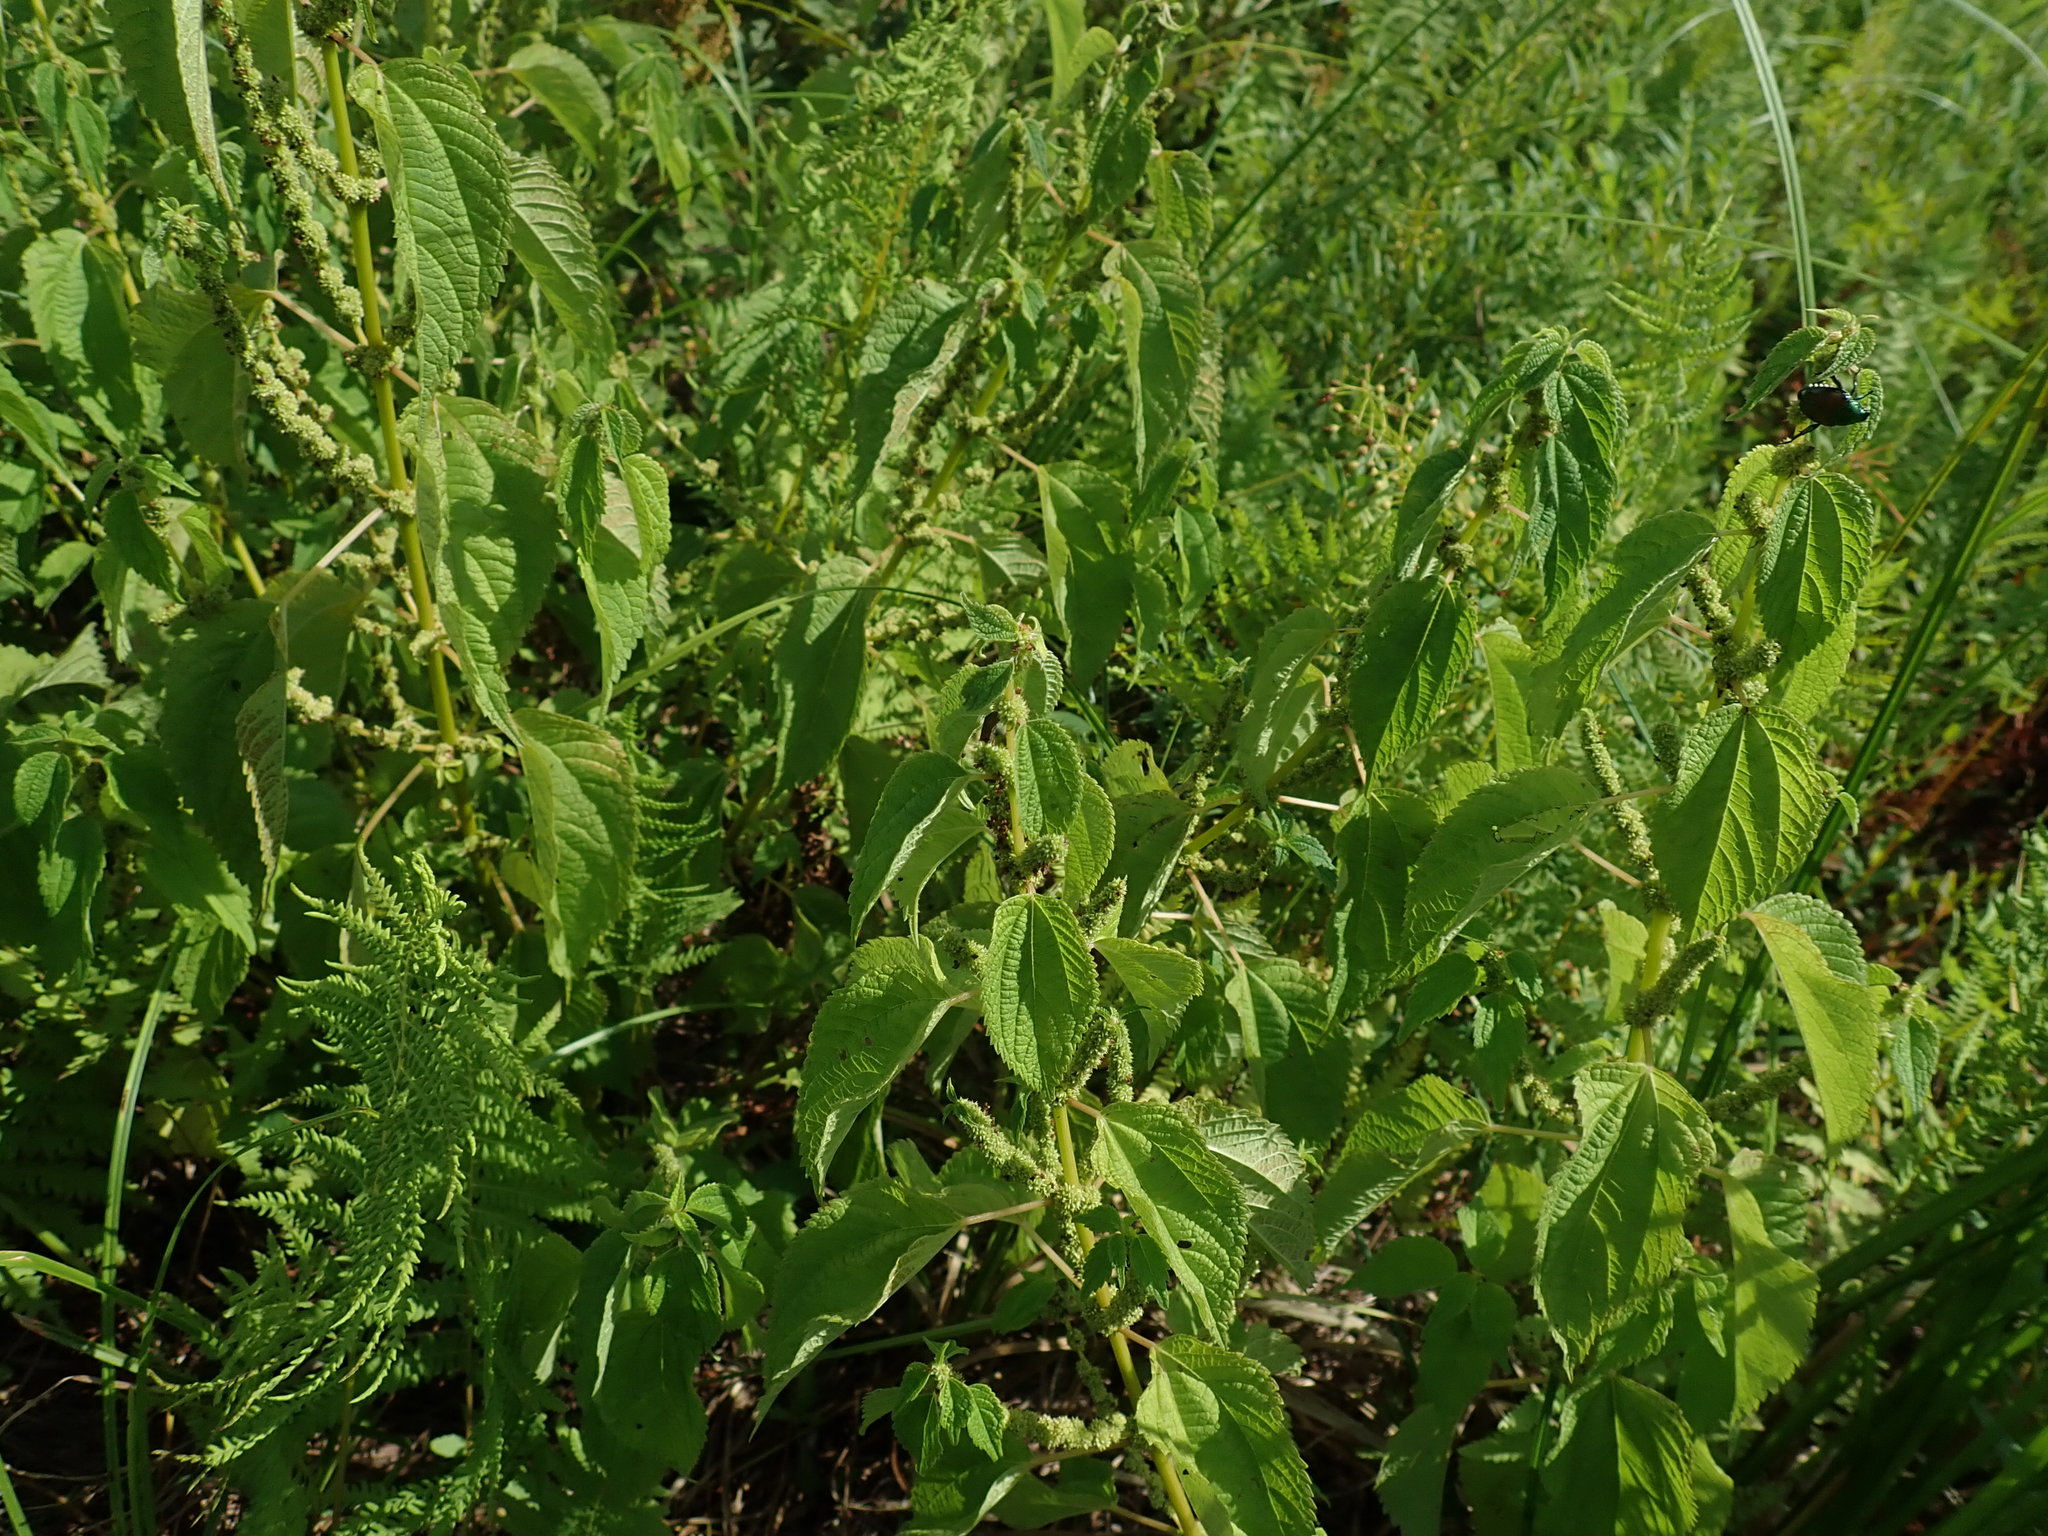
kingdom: Plantae
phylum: Tracheophyta
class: Magnoliopsida
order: Rosales
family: Urticaceae
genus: Boehmeria
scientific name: Boehmeria cylindrica
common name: Bog-hemp
